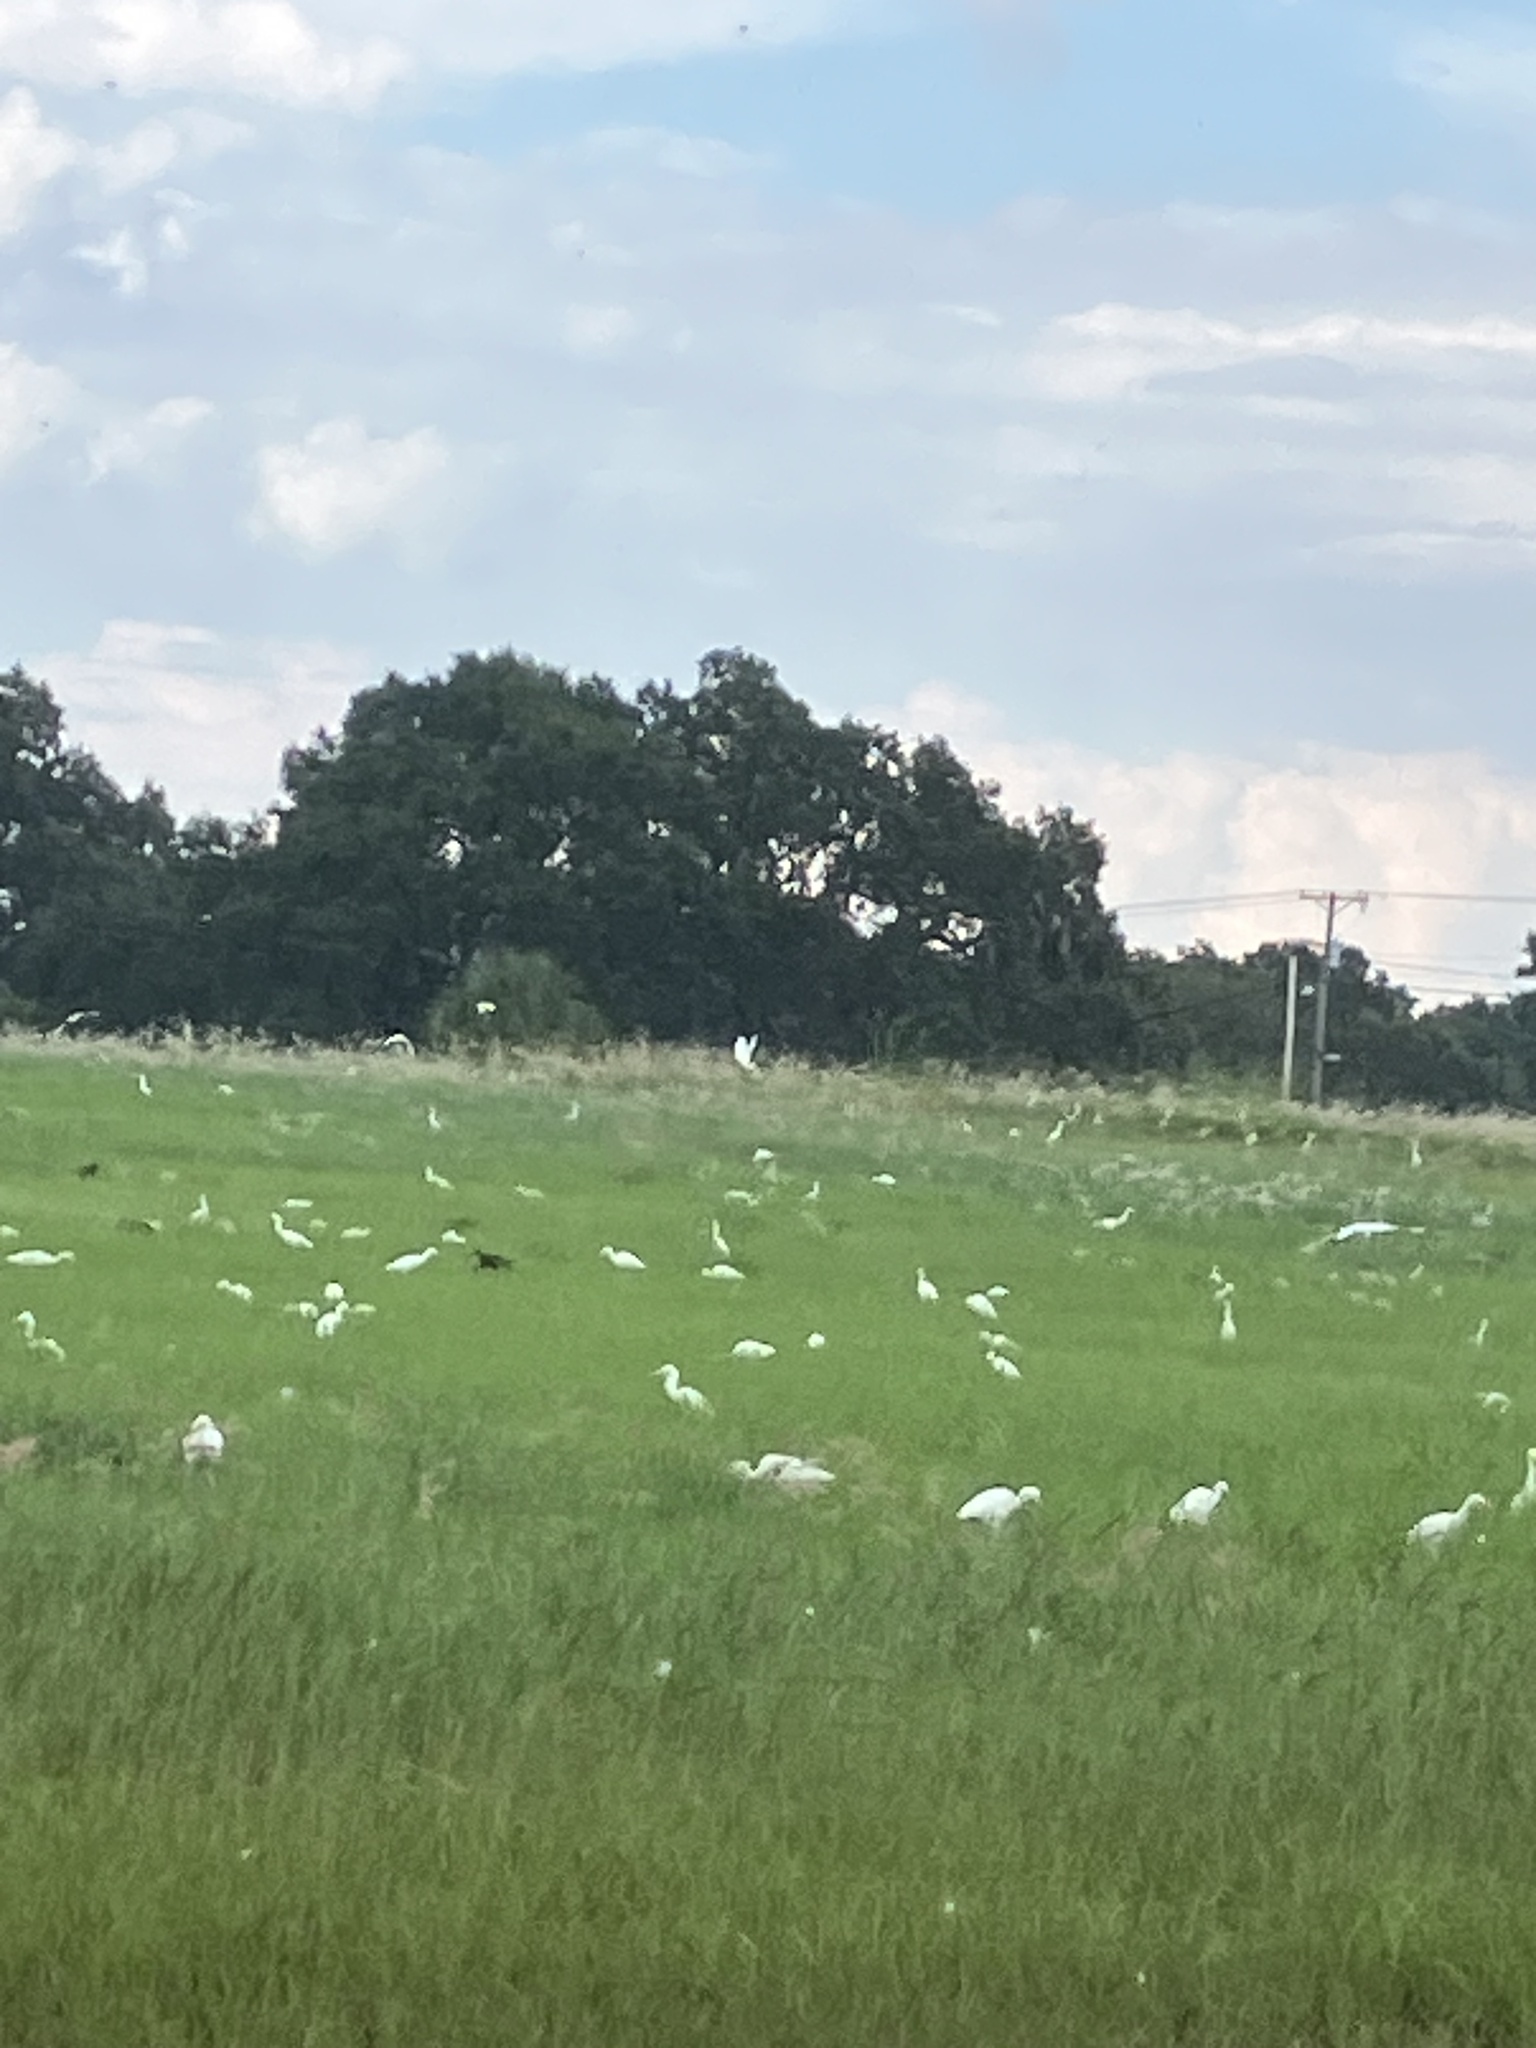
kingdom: Animalia
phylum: Chordata
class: Aves
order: Pelecaniformes
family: Ardeidae
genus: Bubulcus
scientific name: Bubulcus ibis
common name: Cattle egret
